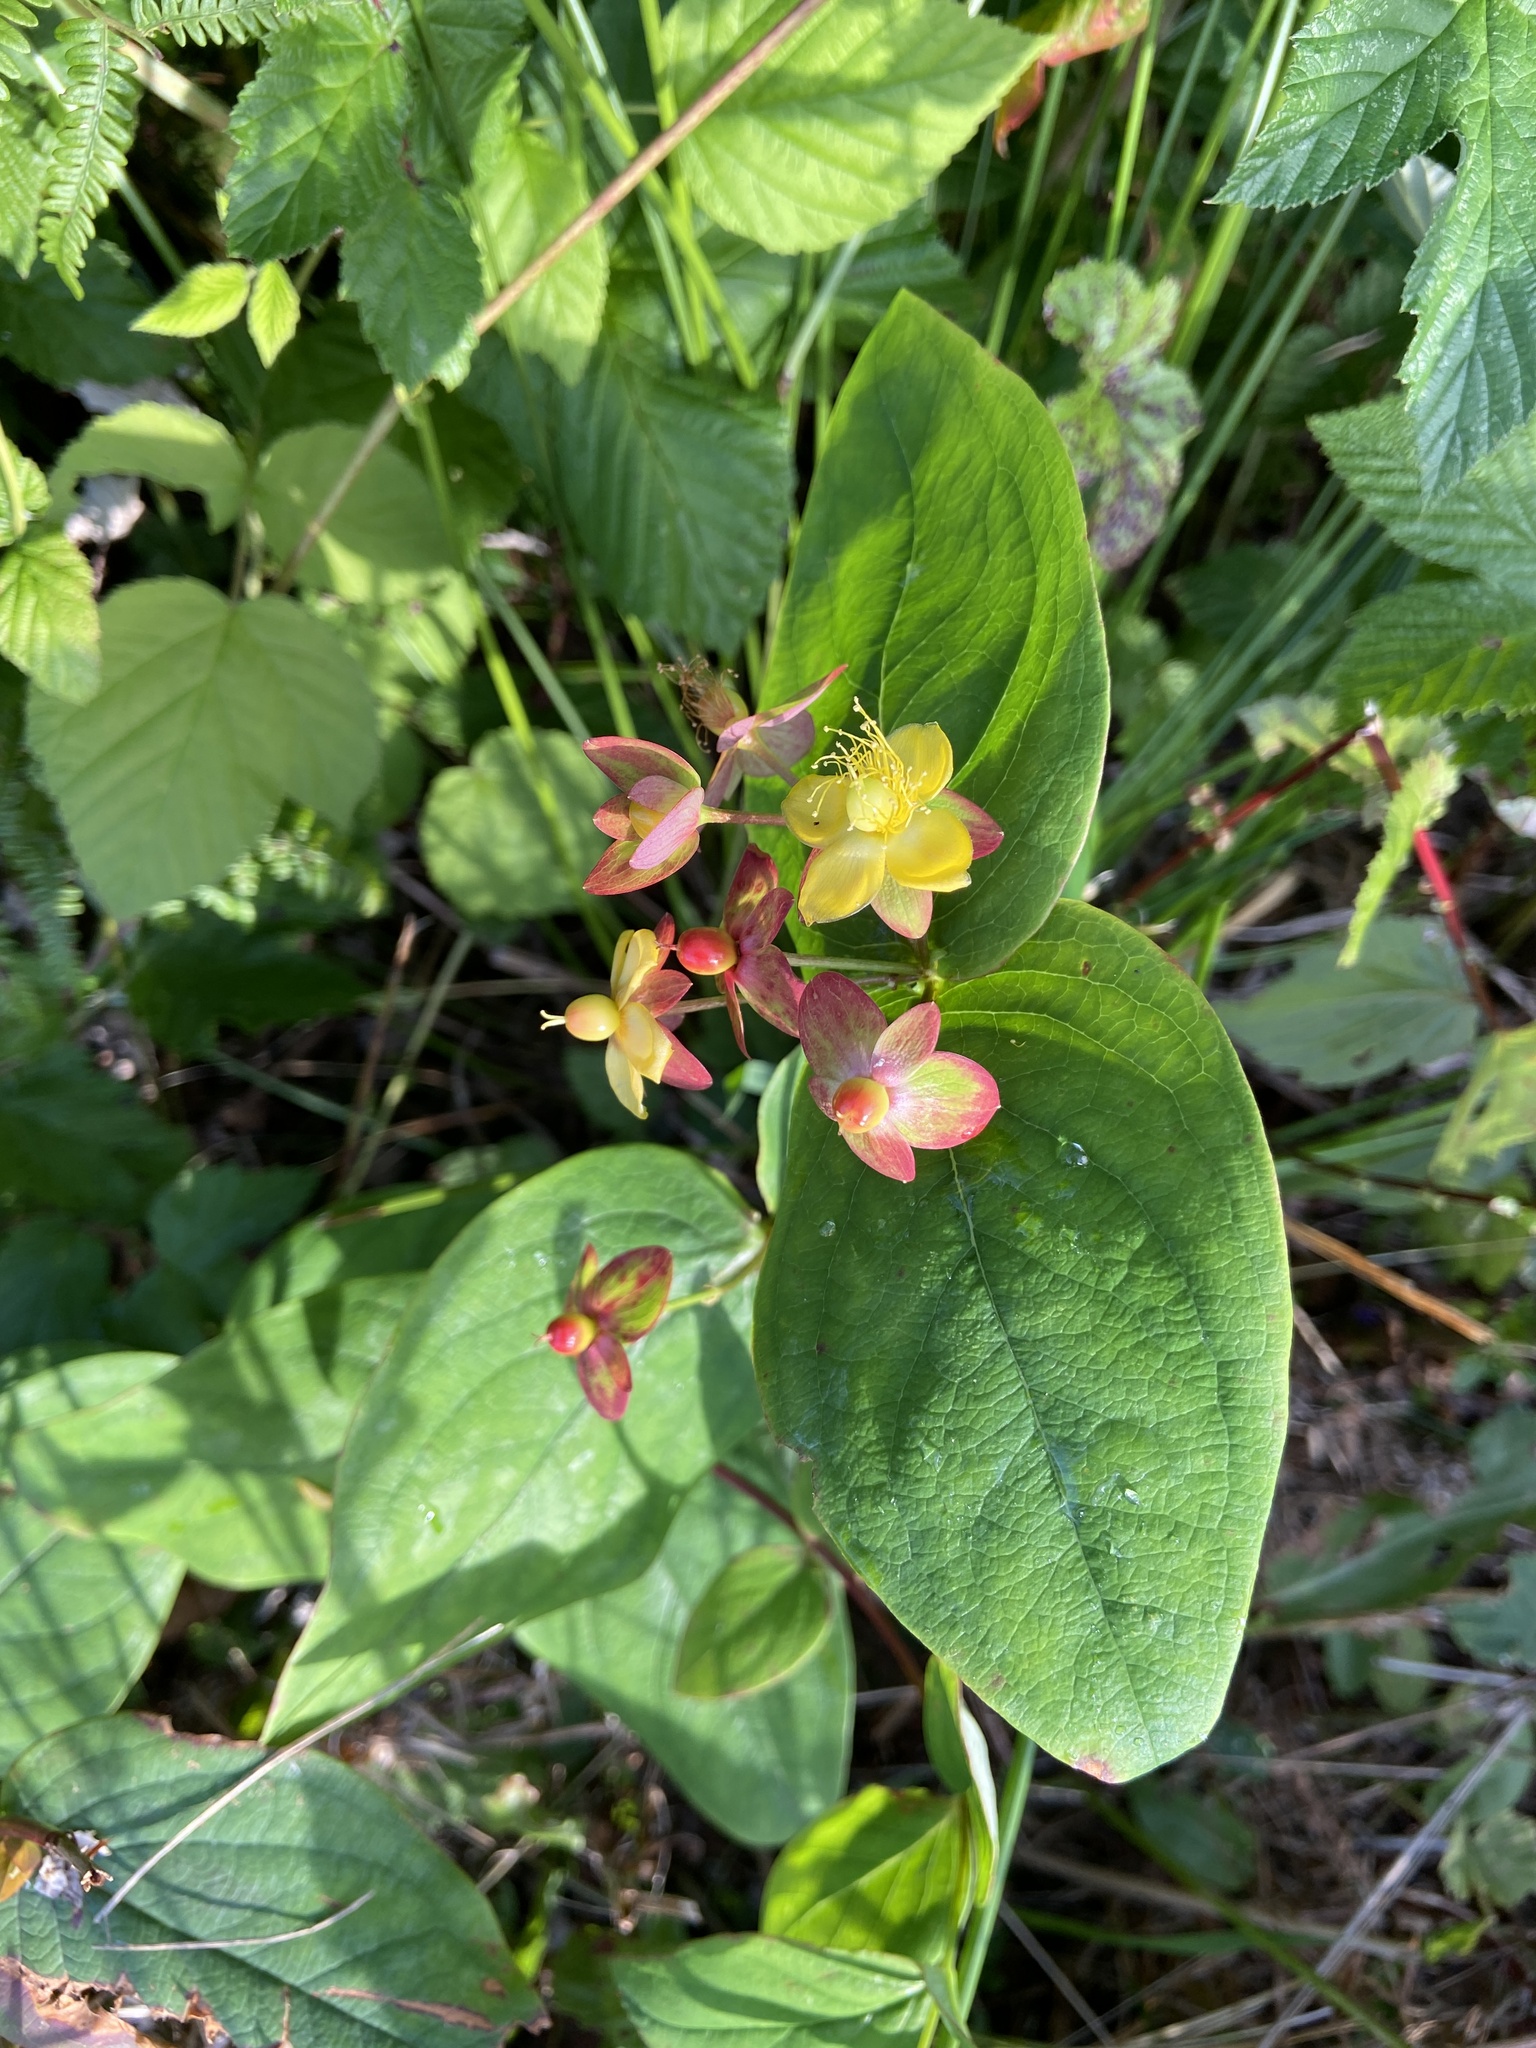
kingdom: Plantae
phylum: Tracheophyta
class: Magnoliopsida
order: Malpighiales
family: Hypericaceae
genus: Hypericum
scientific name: Hypericum androsaemum
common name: Sweet-amber
